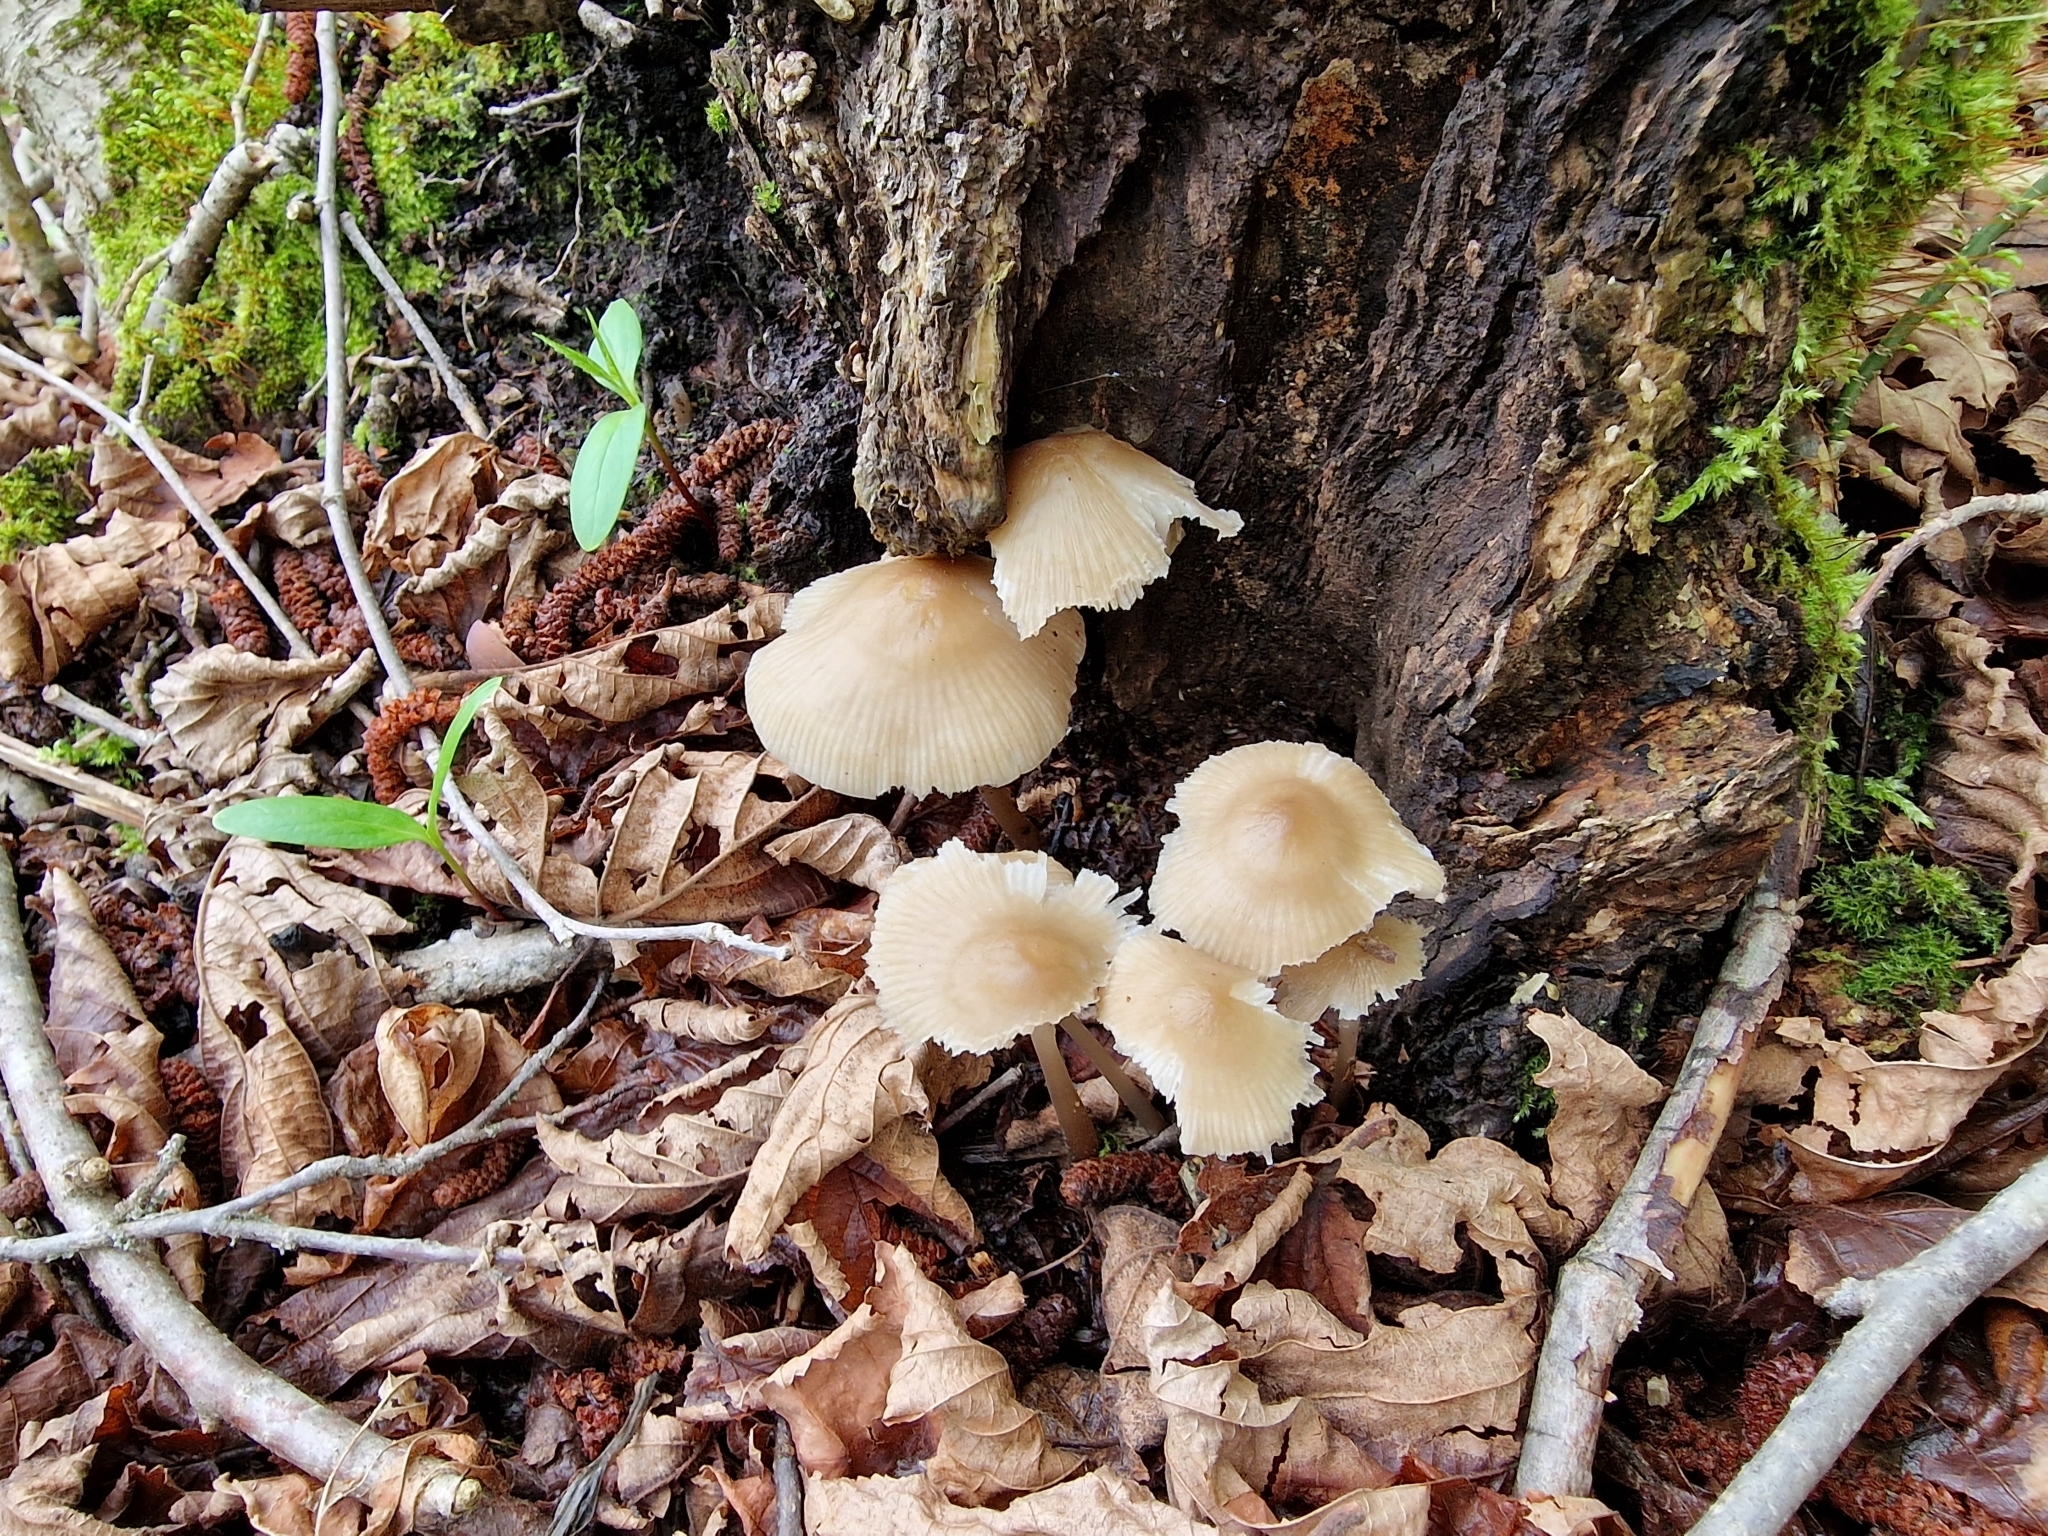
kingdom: Fungi
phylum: Basidiomycota
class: Agaricomycetes
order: Agaricales
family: Mycenaceae
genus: Mycena
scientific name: Mycena galericulata
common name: Bonnet mycena
